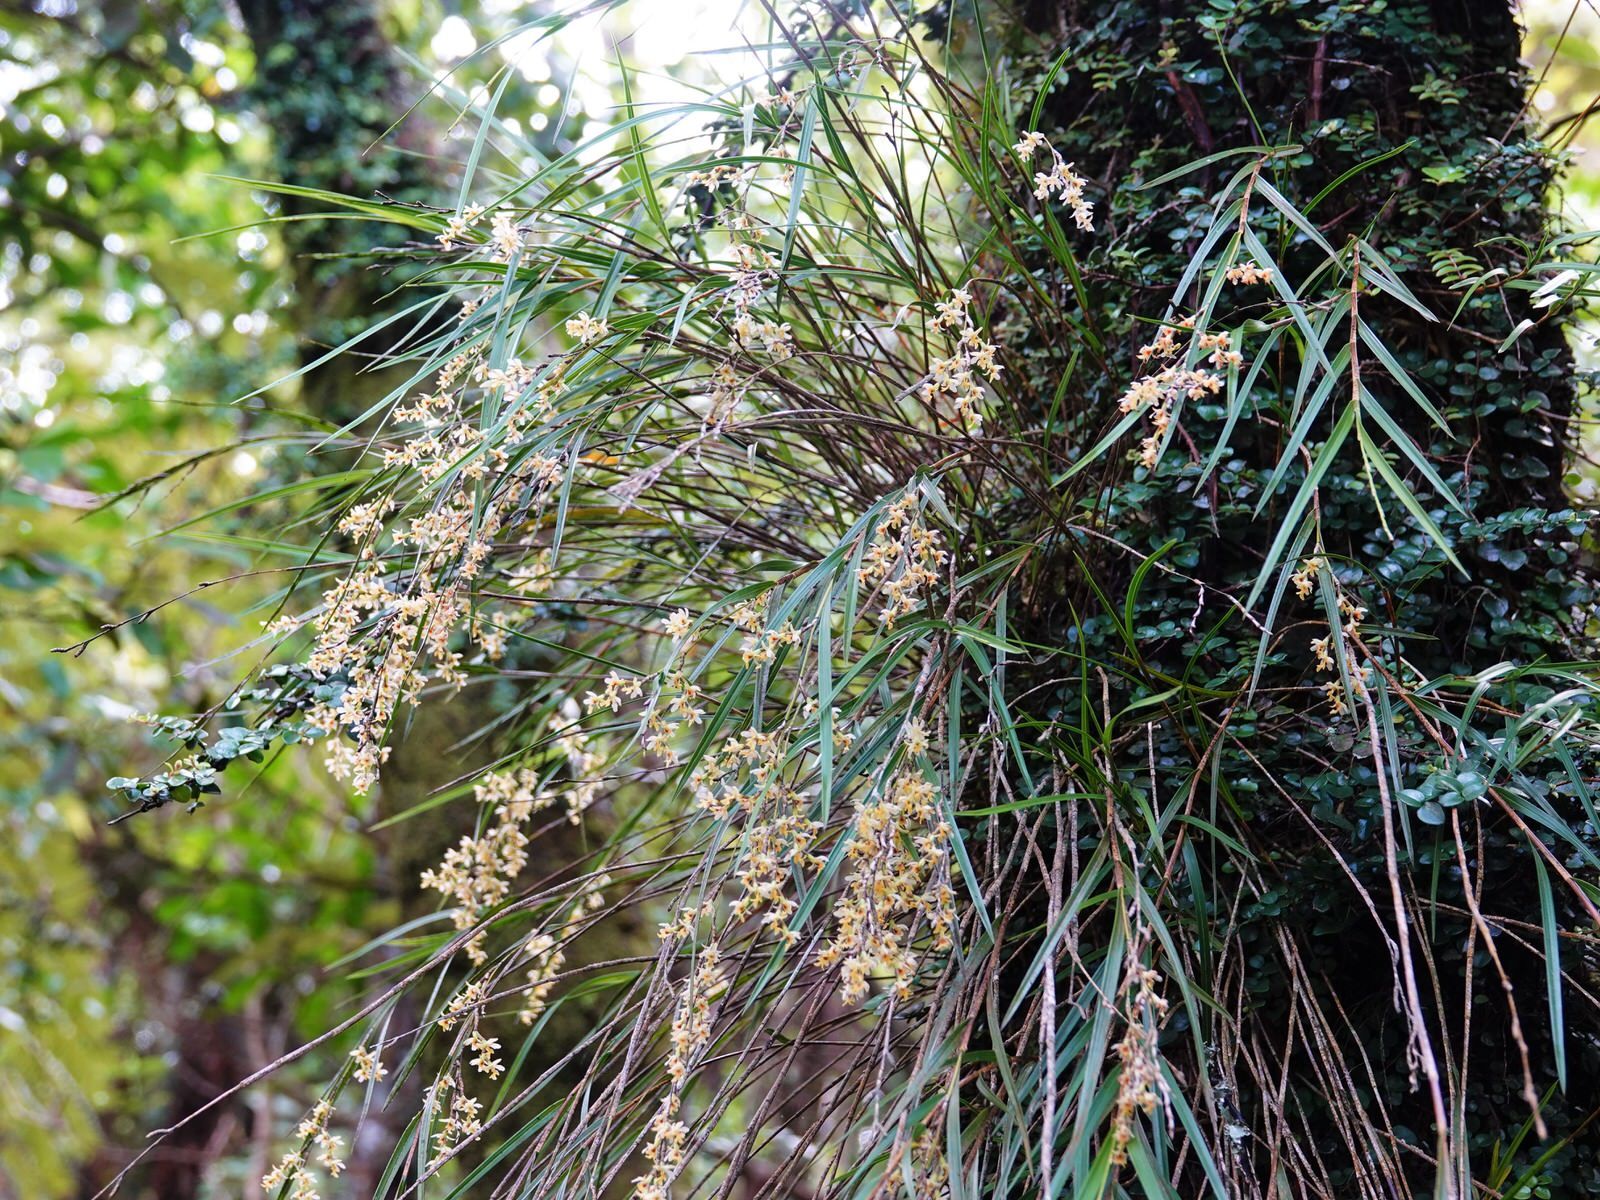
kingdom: Plantae
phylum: Tracheophyta
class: Liliopsida
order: Asparagales
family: Orchidaceae
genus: Earina
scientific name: Earina mucronata
